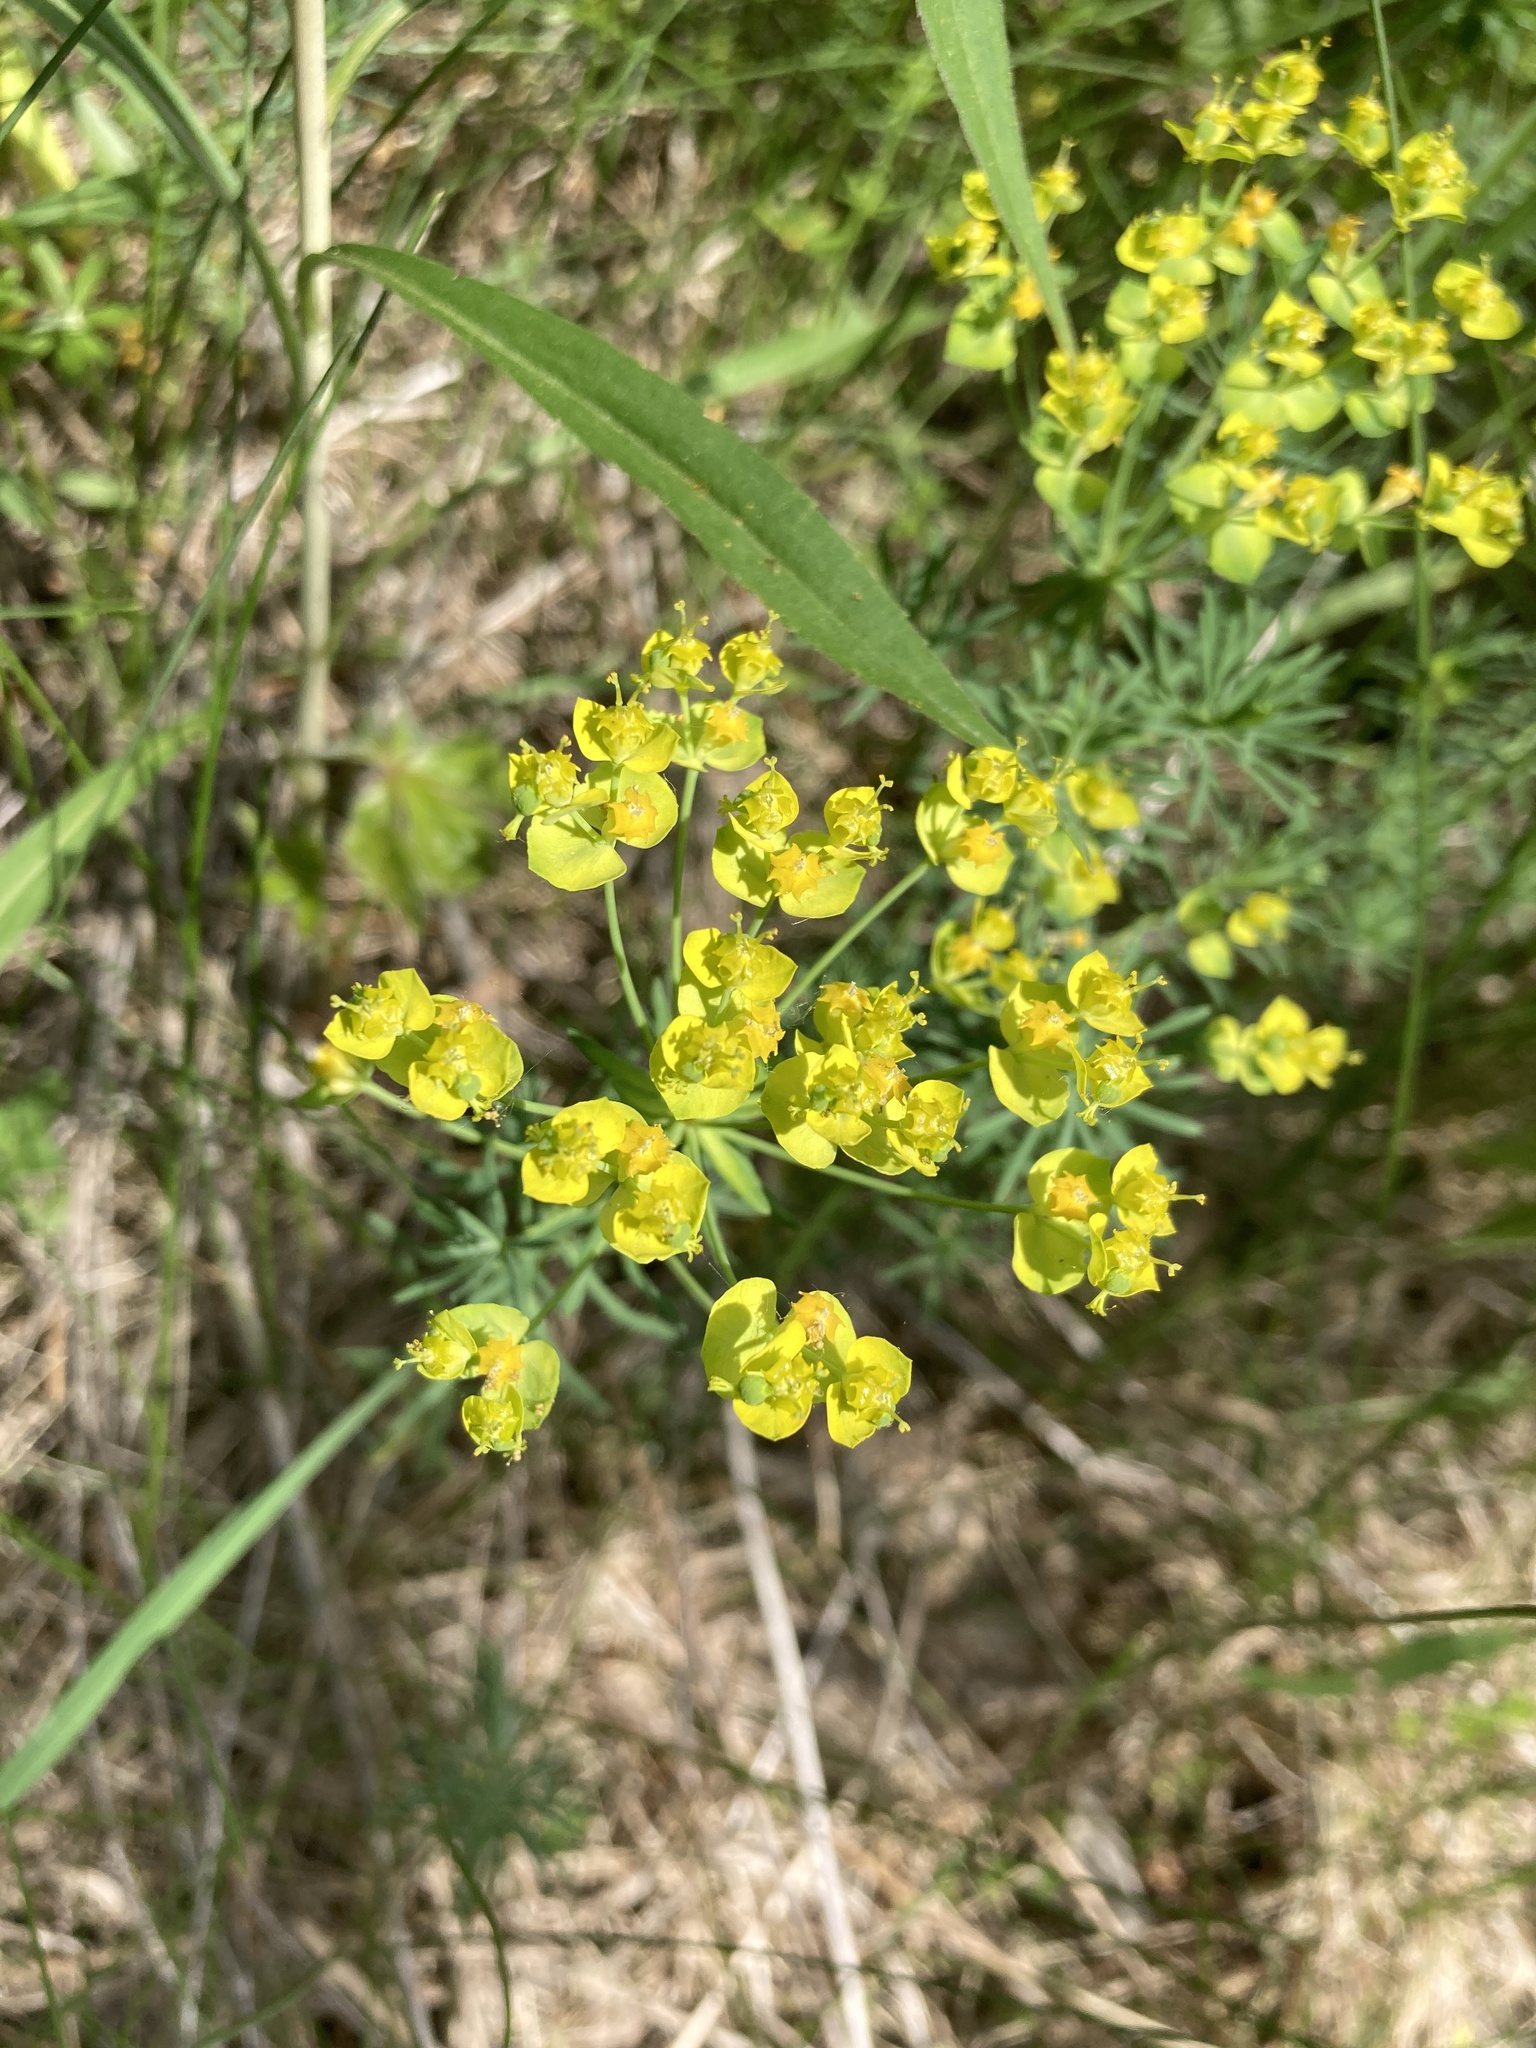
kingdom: Plantae
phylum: Tracheophyta
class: Magnoliopsida
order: Malpighiales
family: Euphorbiaceae
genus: Euphorbia
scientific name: Euphorbia cyparissias
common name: Cypress spurge
